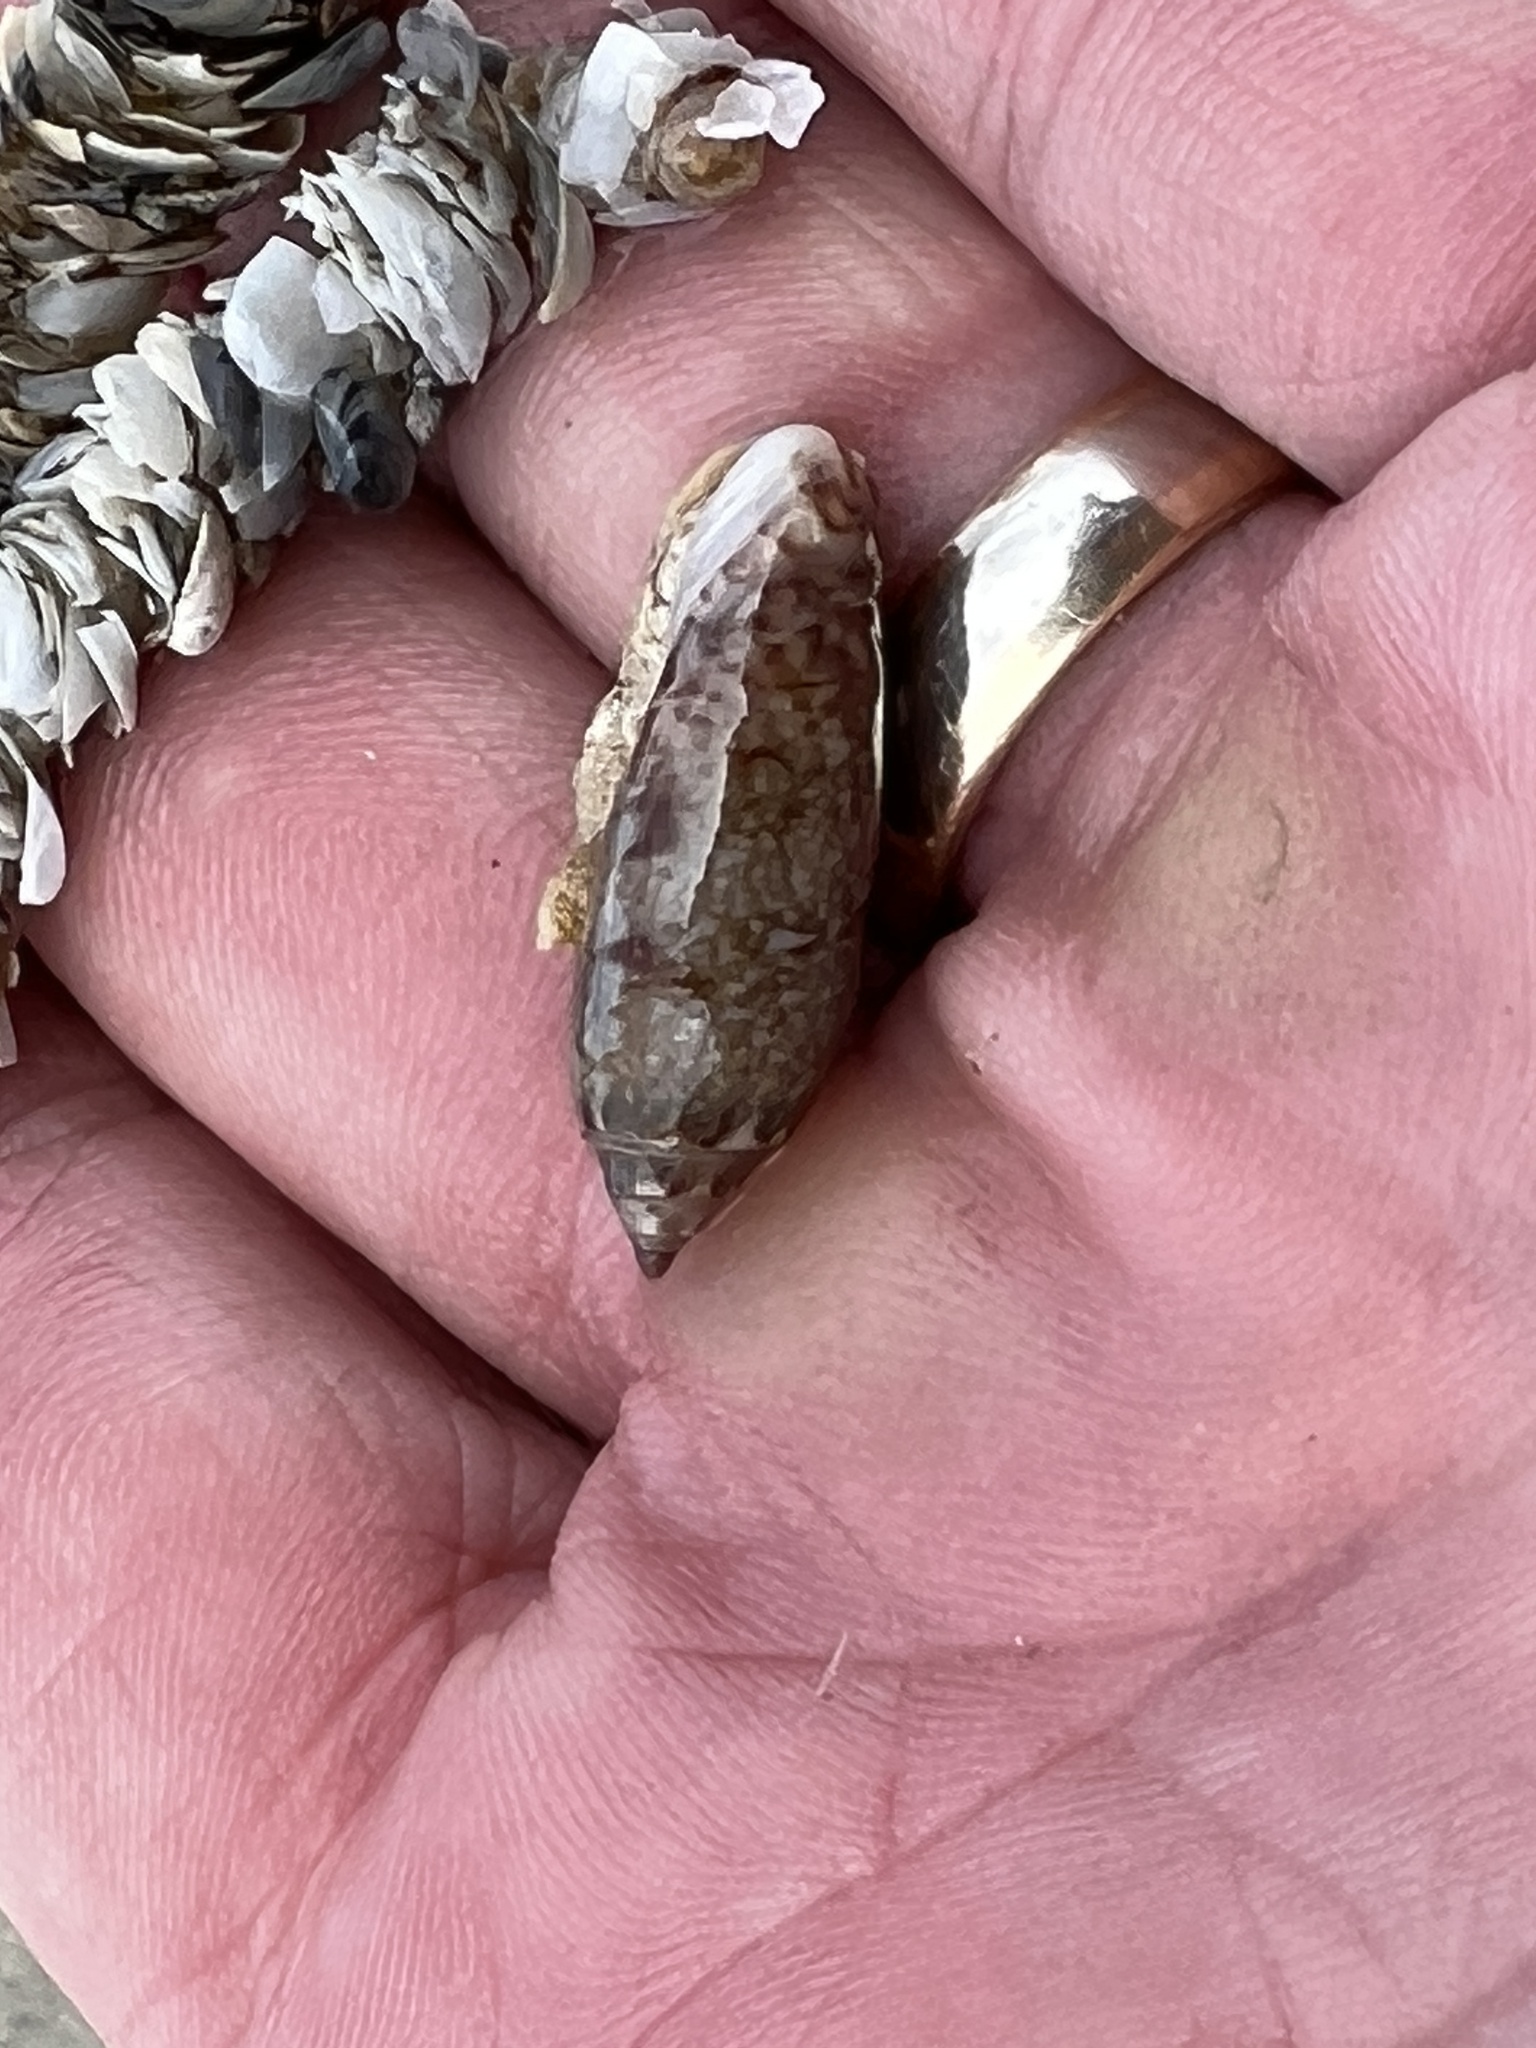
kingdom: Animalia
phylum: Mollusca
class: Gastropoda
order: Neogastropoda
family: Olividae
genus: Oliva
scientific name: Oliva sayana
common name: Lettered olive
